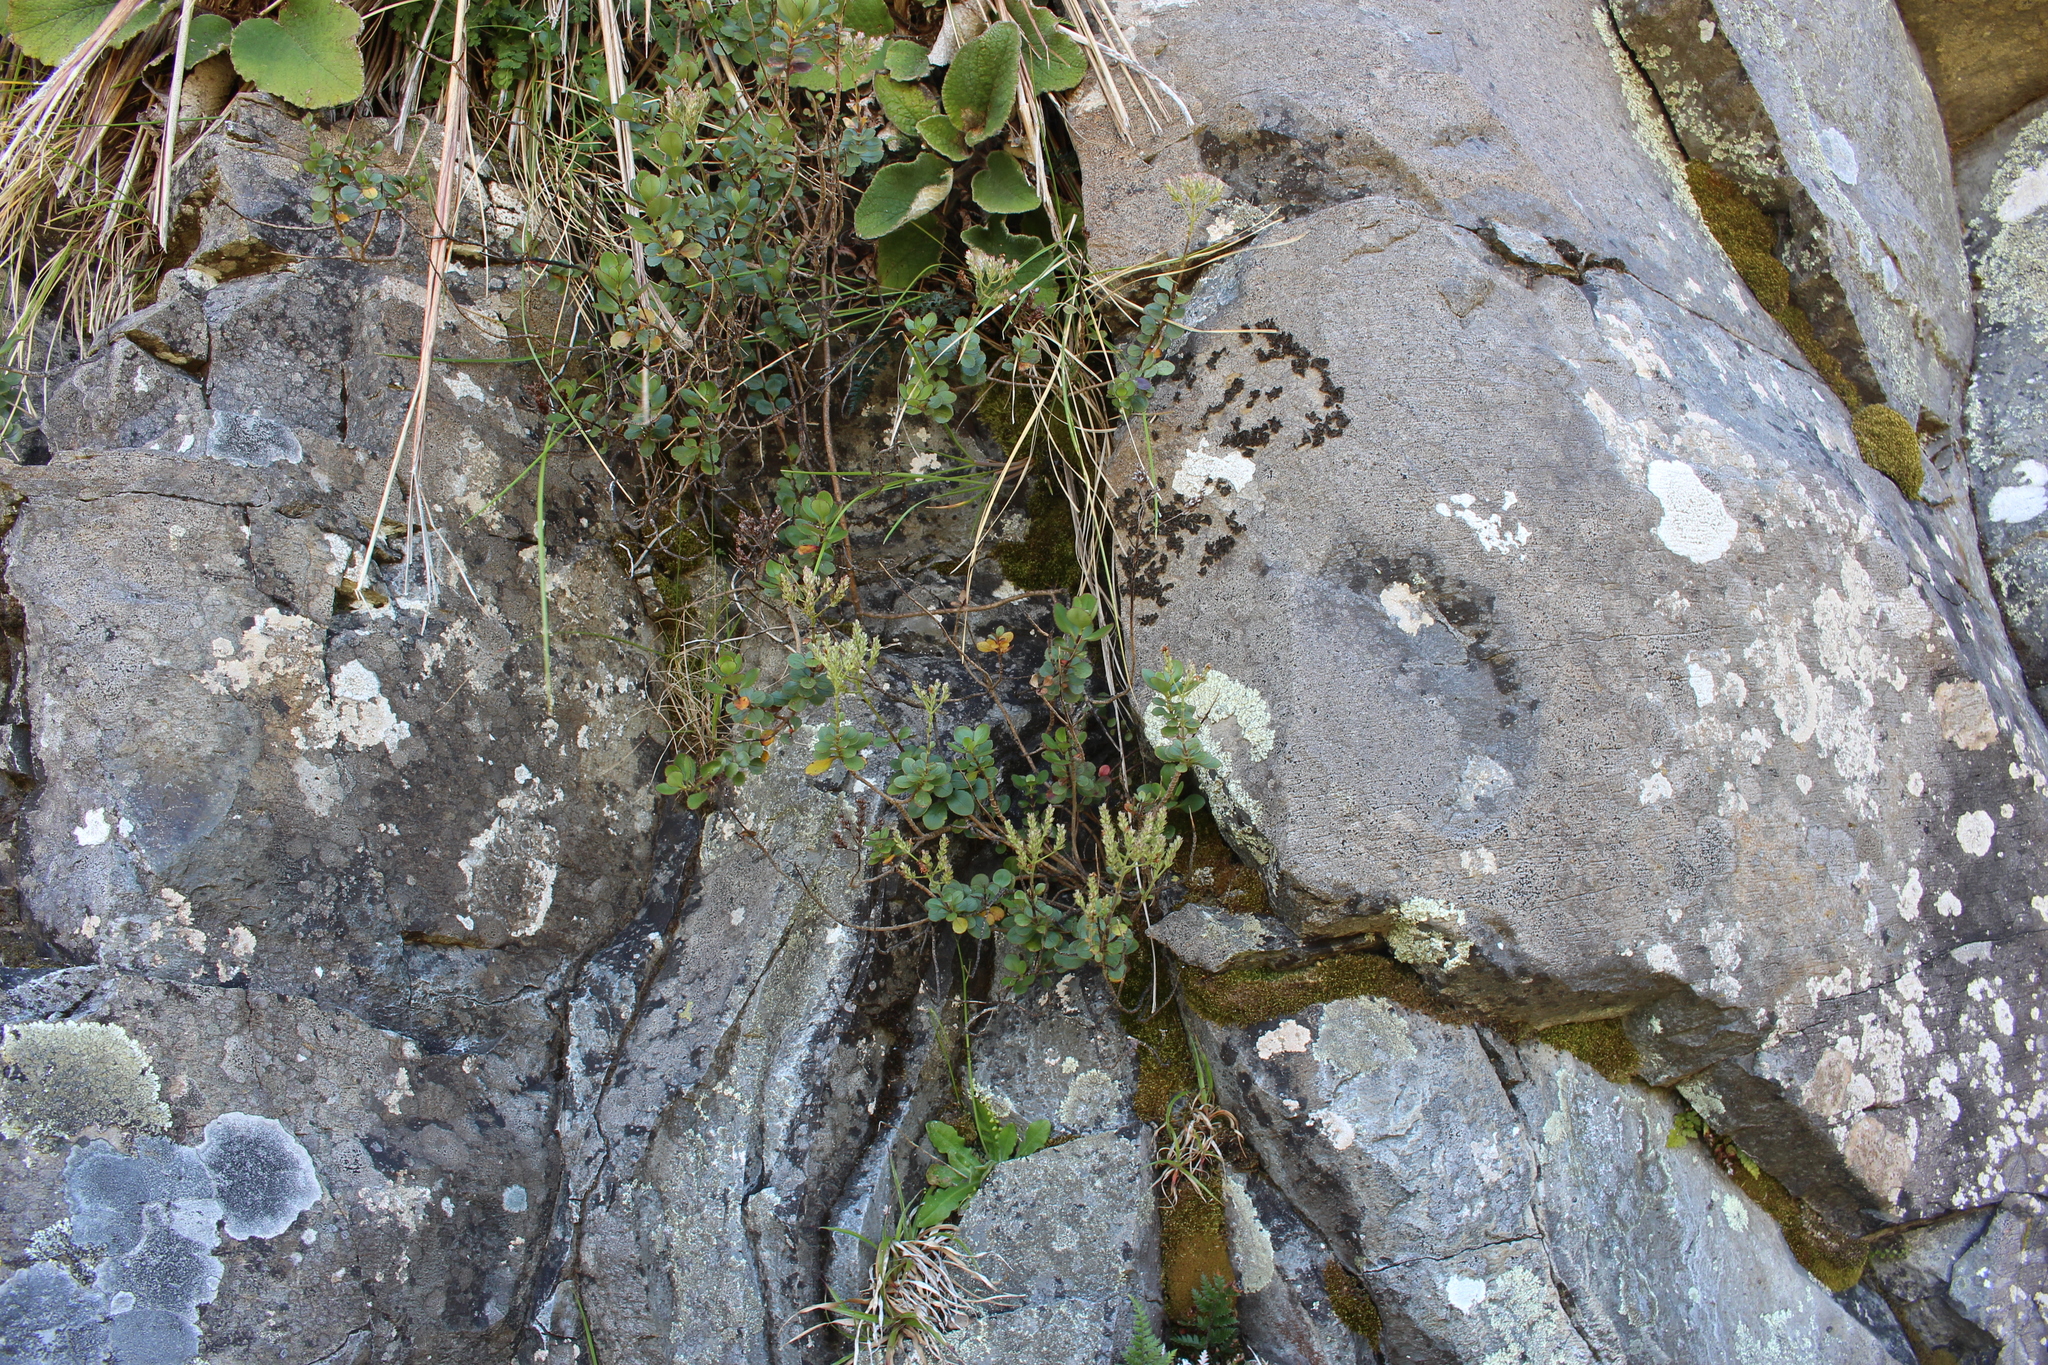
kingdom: Plantae
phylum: Tracheophyta
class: Magnoliopsida
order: Lamiales
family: Plantaginaceae
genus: Veronica
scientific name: Veronica lavaudiana
